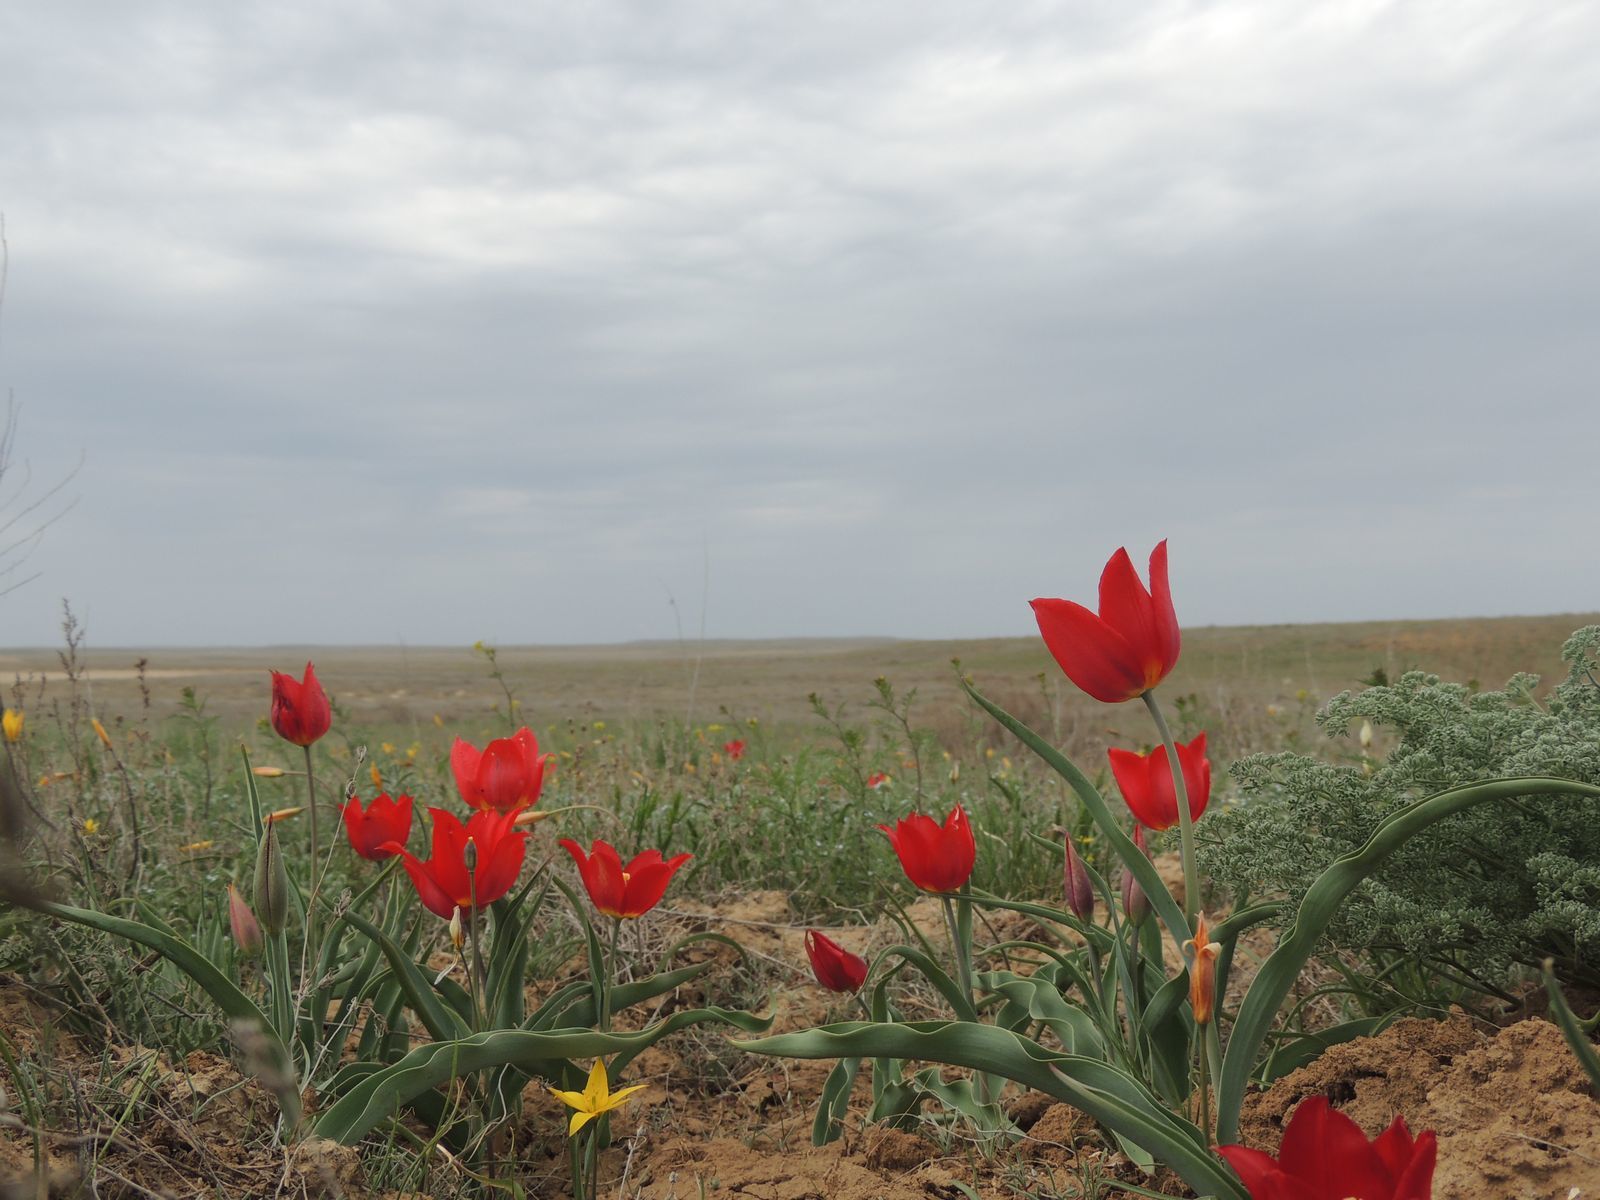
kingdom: Plantae
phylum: Tracheophyta
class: Liliopsida
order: Liliales
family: Liliaceae
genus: Tulipa
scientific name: Tulipa suaveolens
